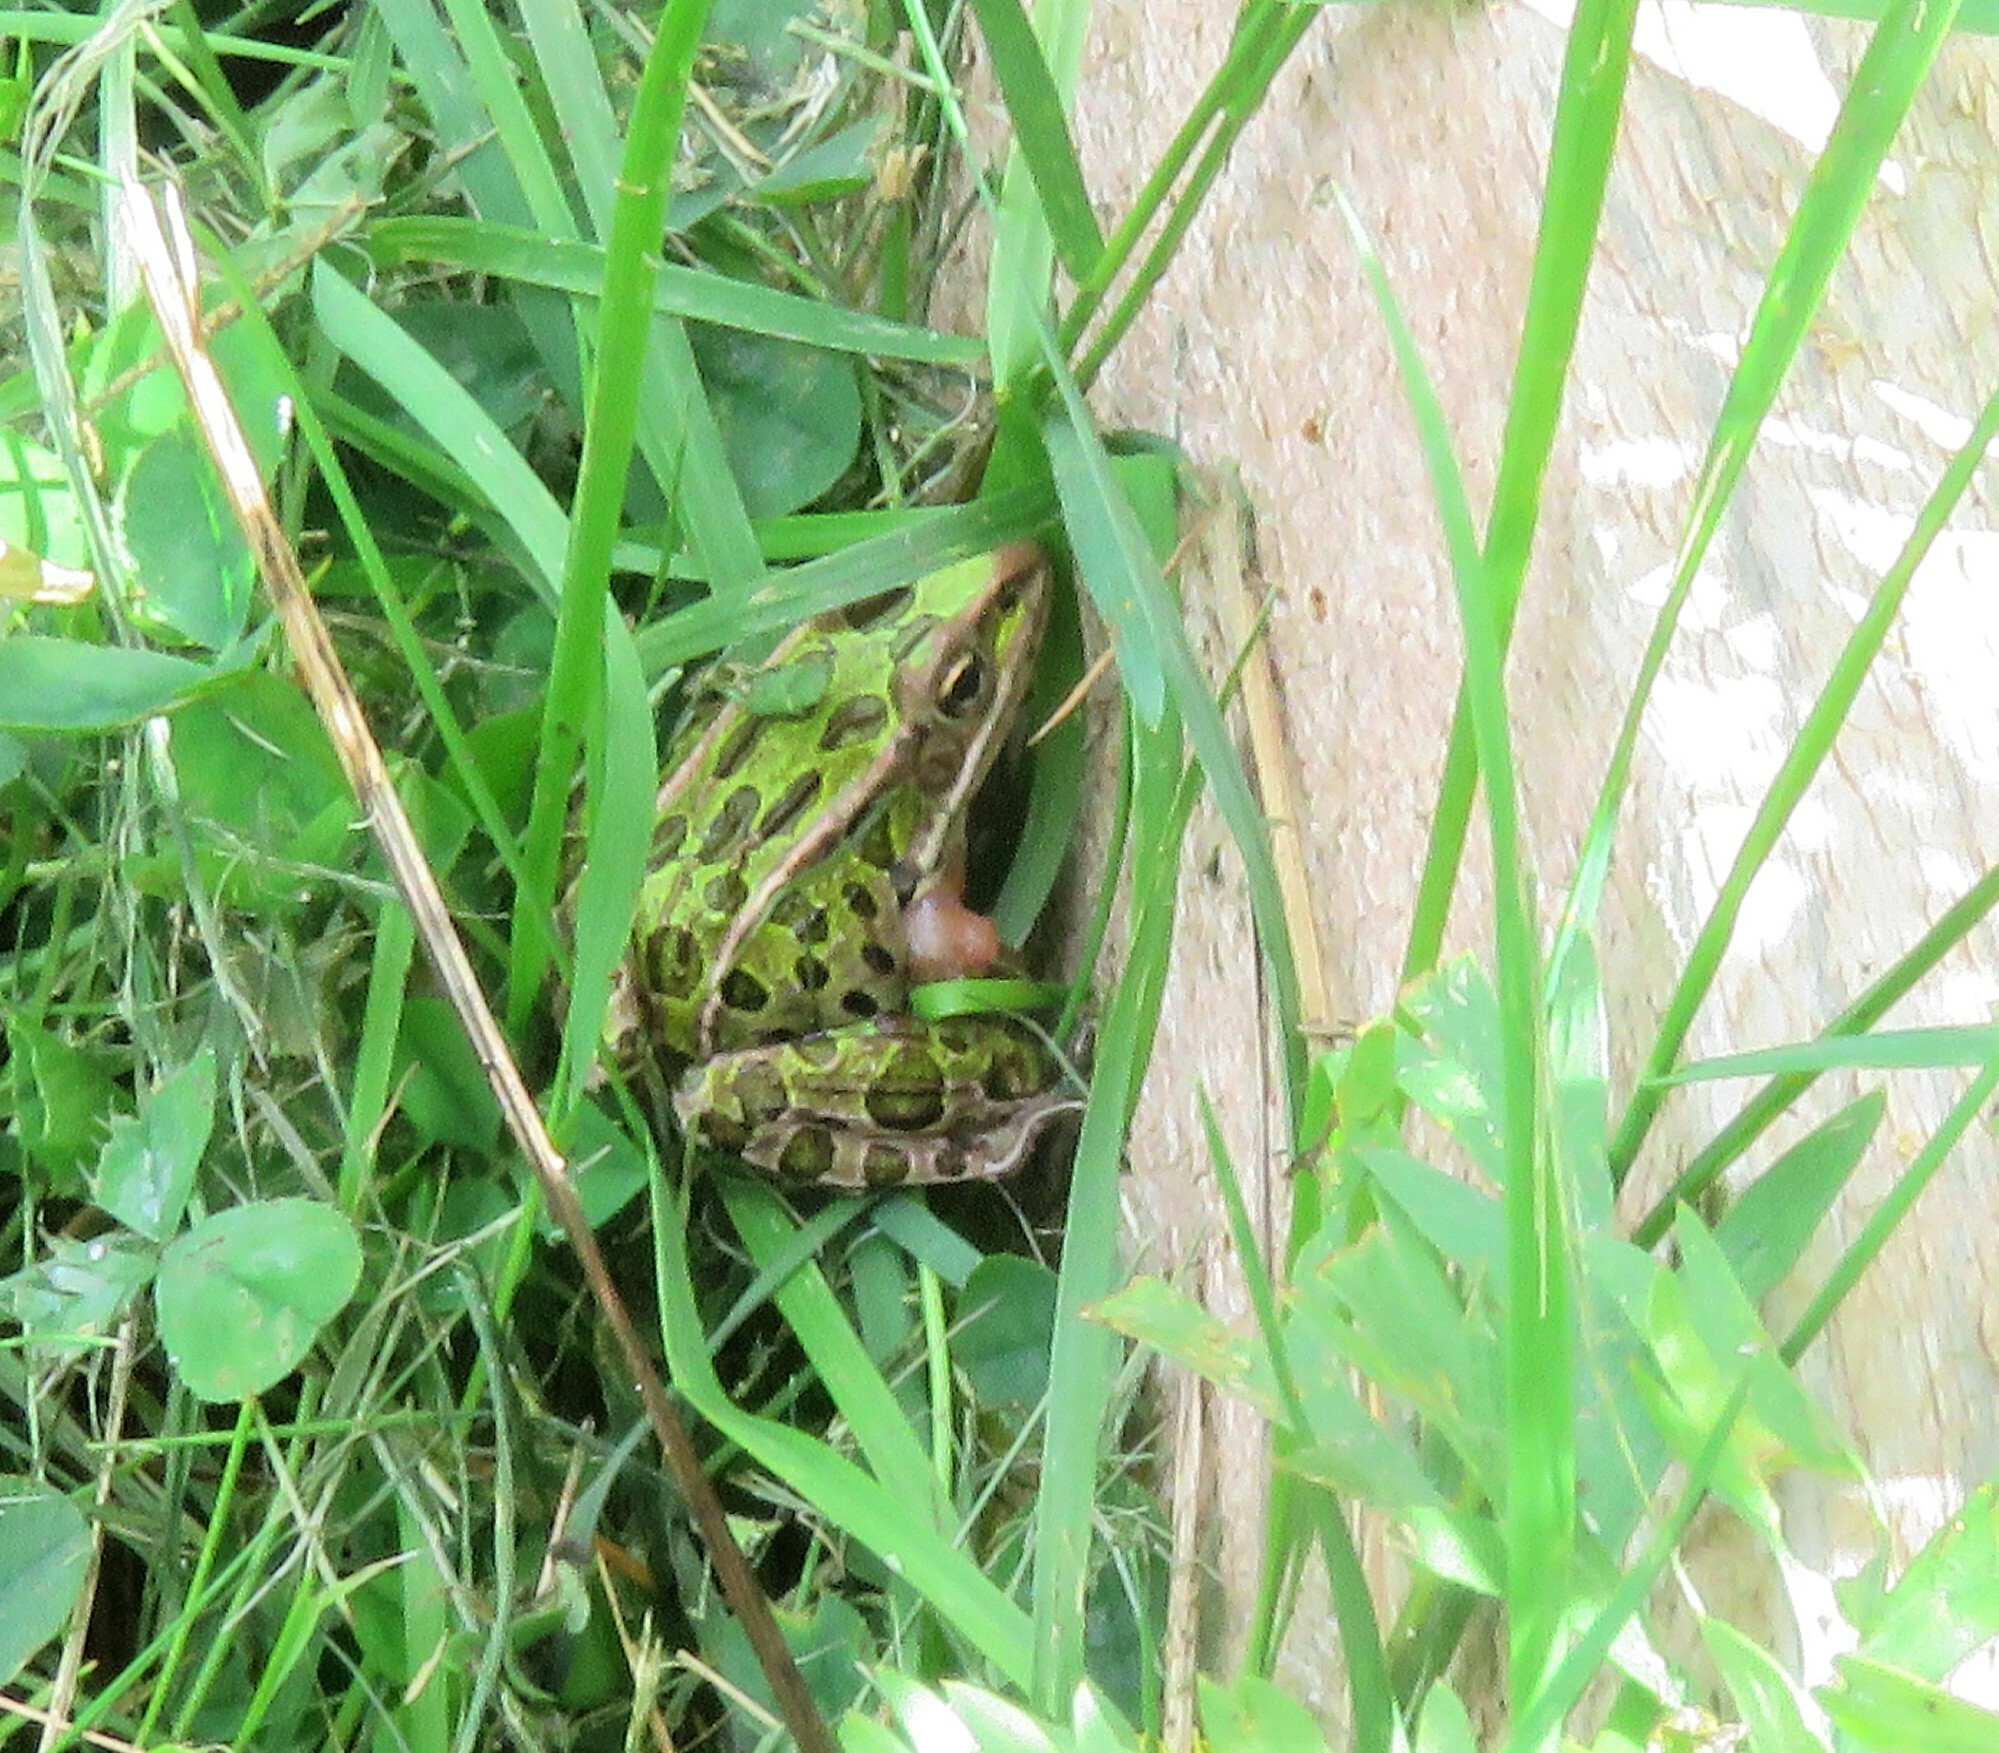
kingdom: Animalia
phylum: Chordata
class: Amphibia
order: Anura
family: Ranidae
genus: Lithobates
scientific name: Lithobates pipiens
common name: Northern leopard frog
